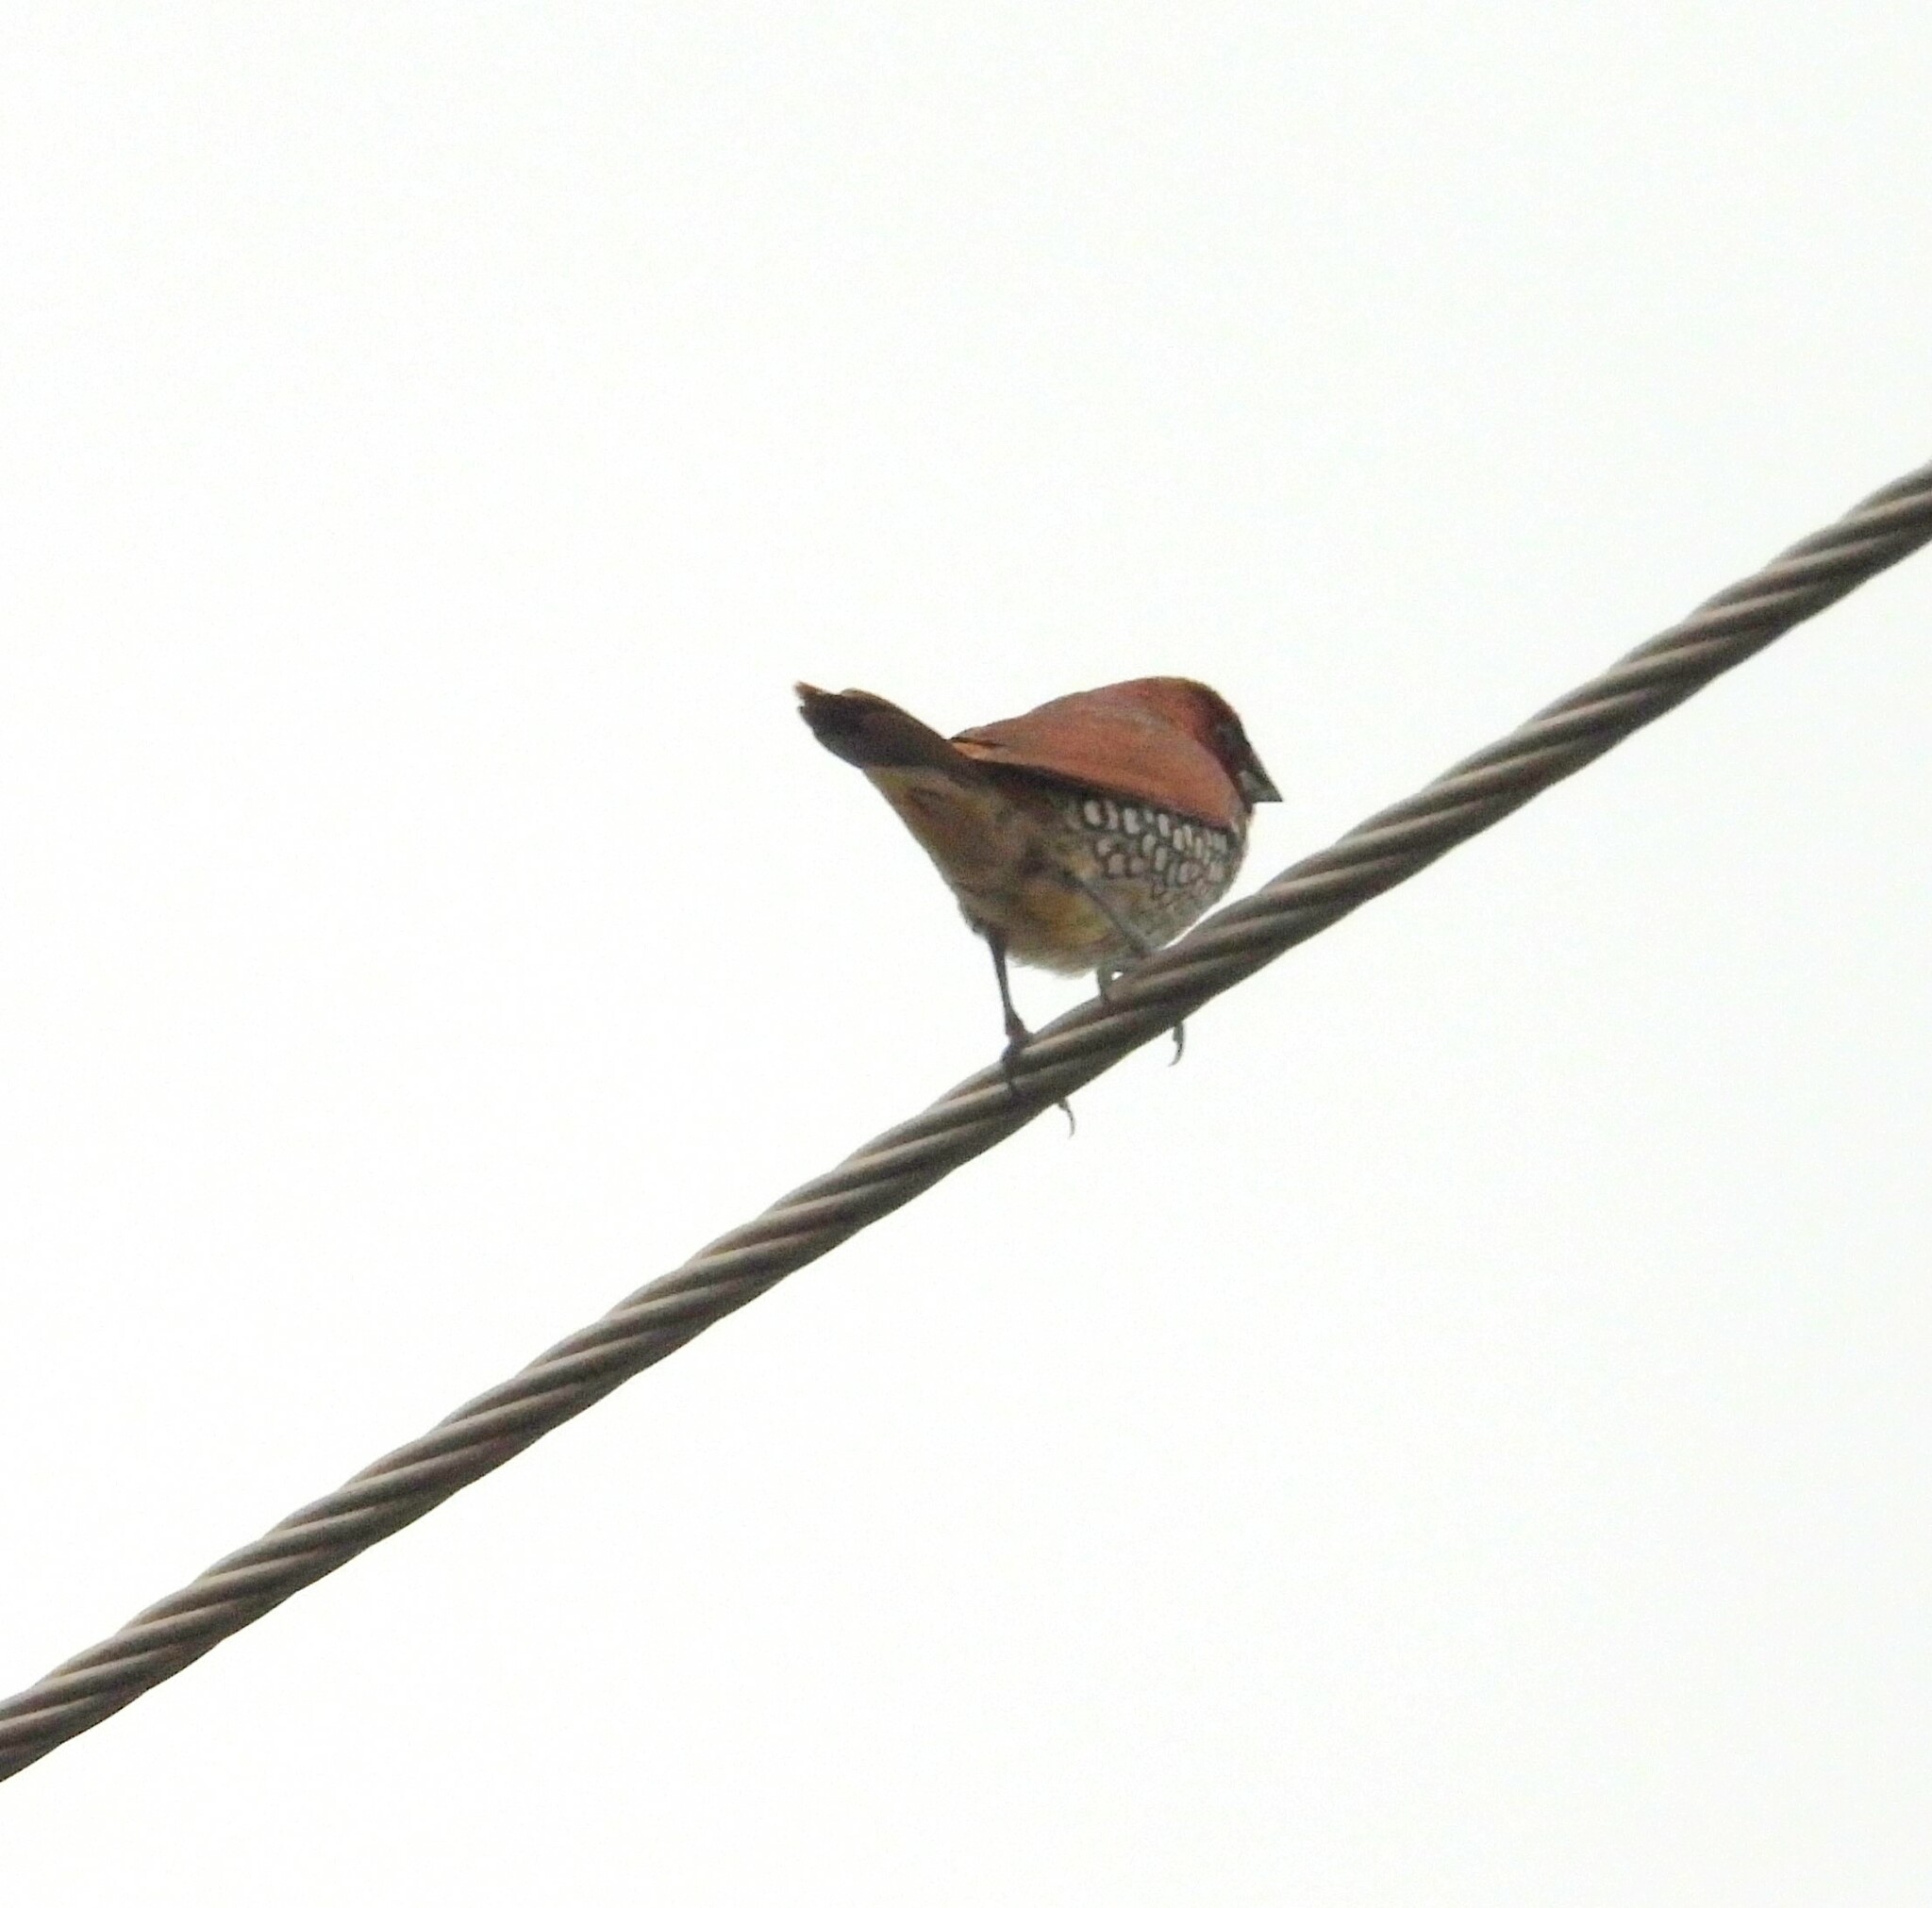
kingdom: Animalia
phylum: Chordata
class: Aves
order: Passeriformes
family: Estrildidae
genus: Lonchura
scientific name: Lonchura punctulata
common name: Scaly-breasted munia
